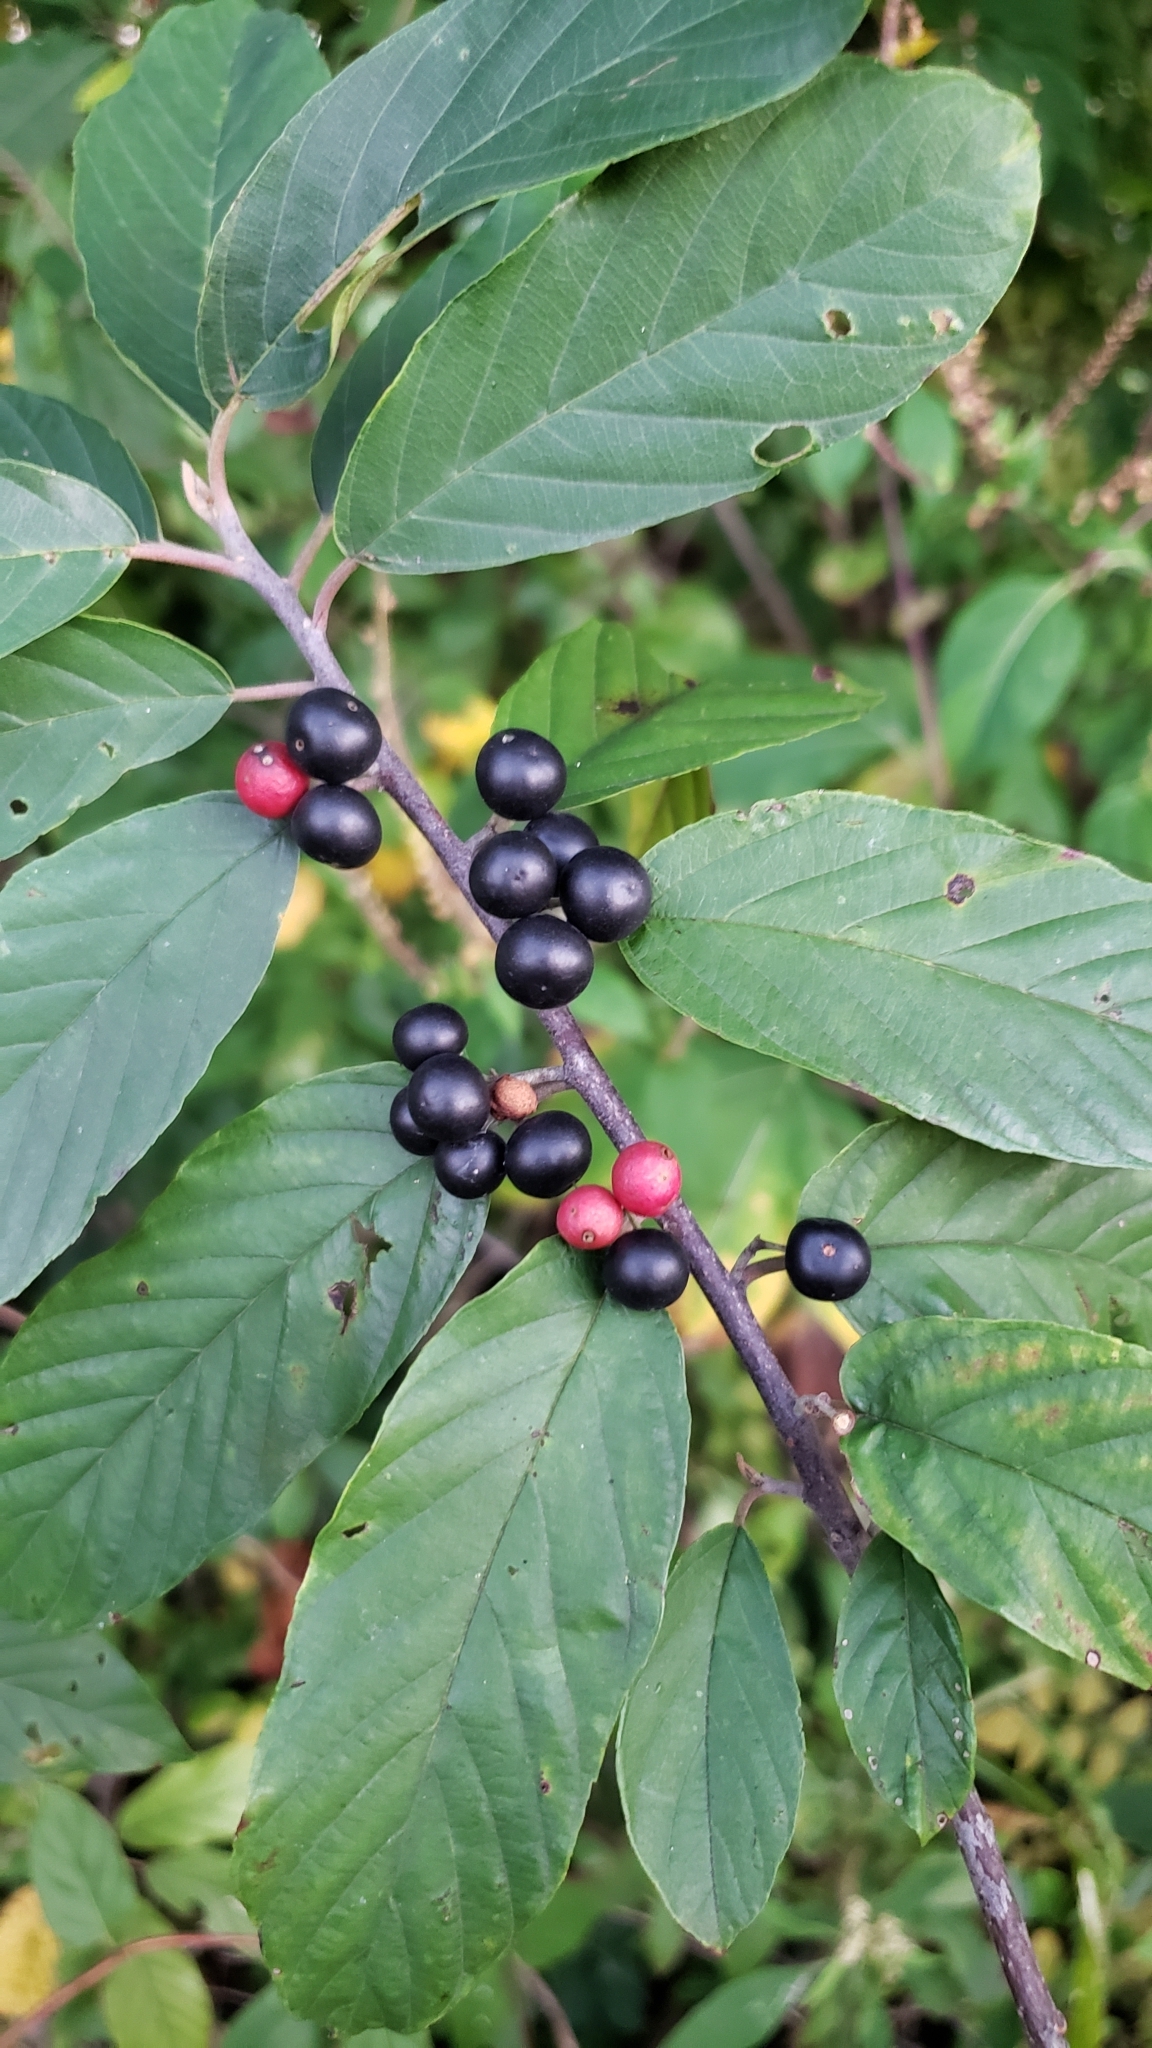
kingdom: Plantae
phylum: Tracheophyta
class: Magnoliopsida
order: Rosales
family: Rhamnaceae
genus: Frangula
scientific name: Frangula caroliniana
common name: Carolina buckthorn
